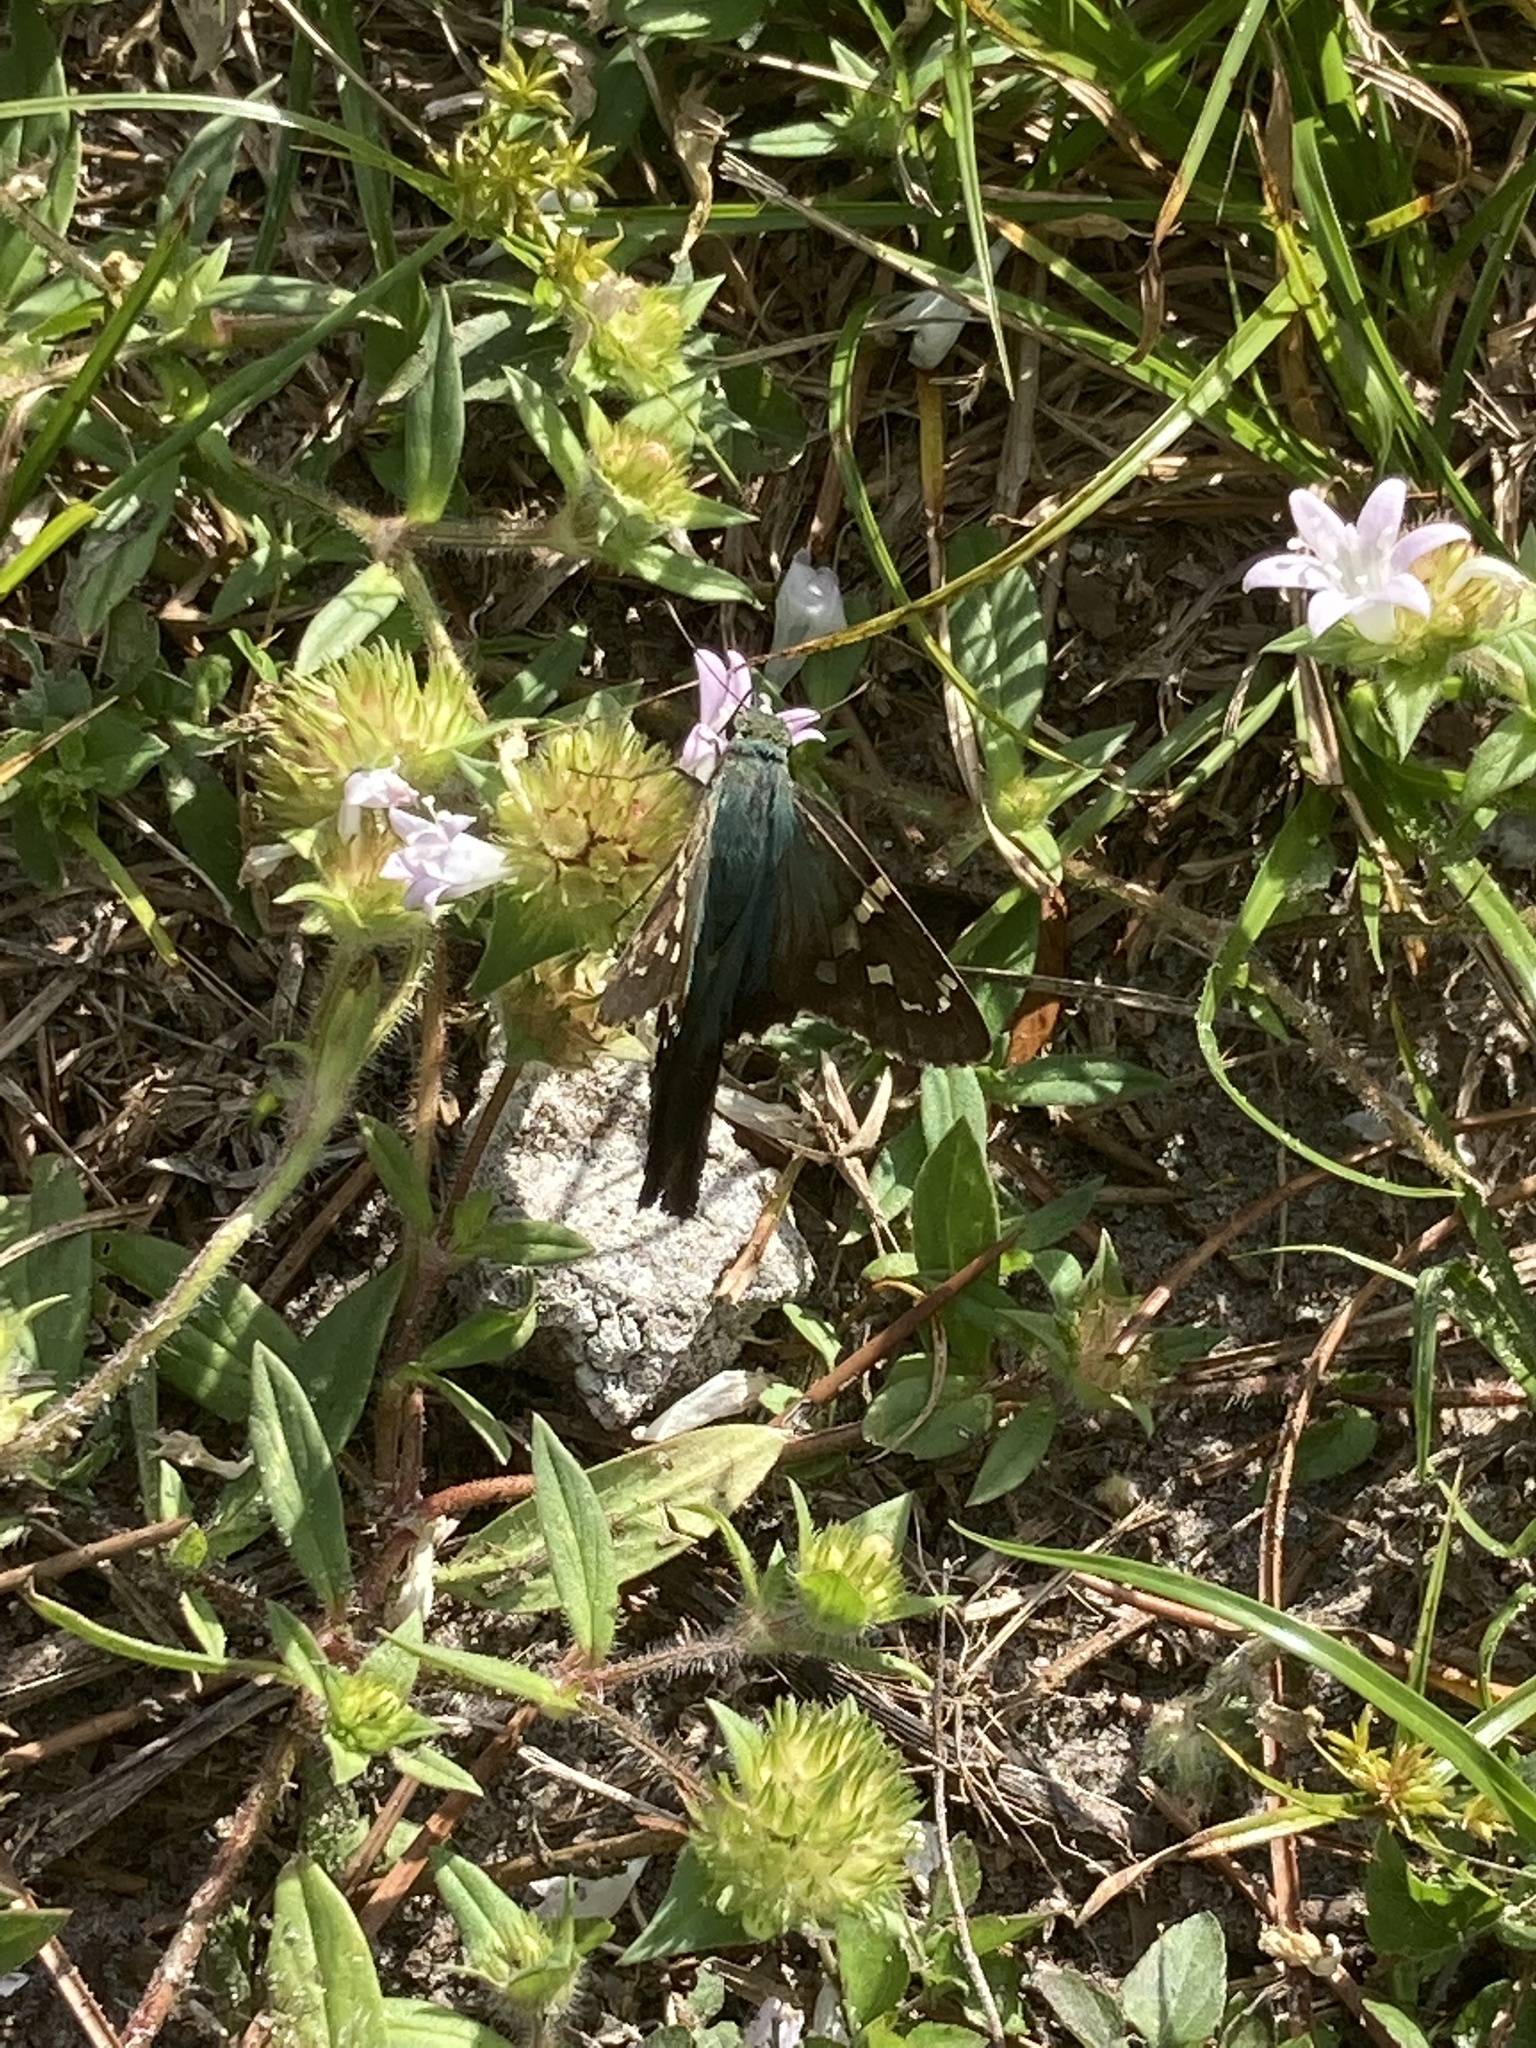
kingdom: Animalia
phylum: Arthropoda
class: Insecta
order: Lepidoptera
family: Hesperiidae
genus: Urbanus
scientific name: Urbanus proteus
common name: Long-tailed skipper
